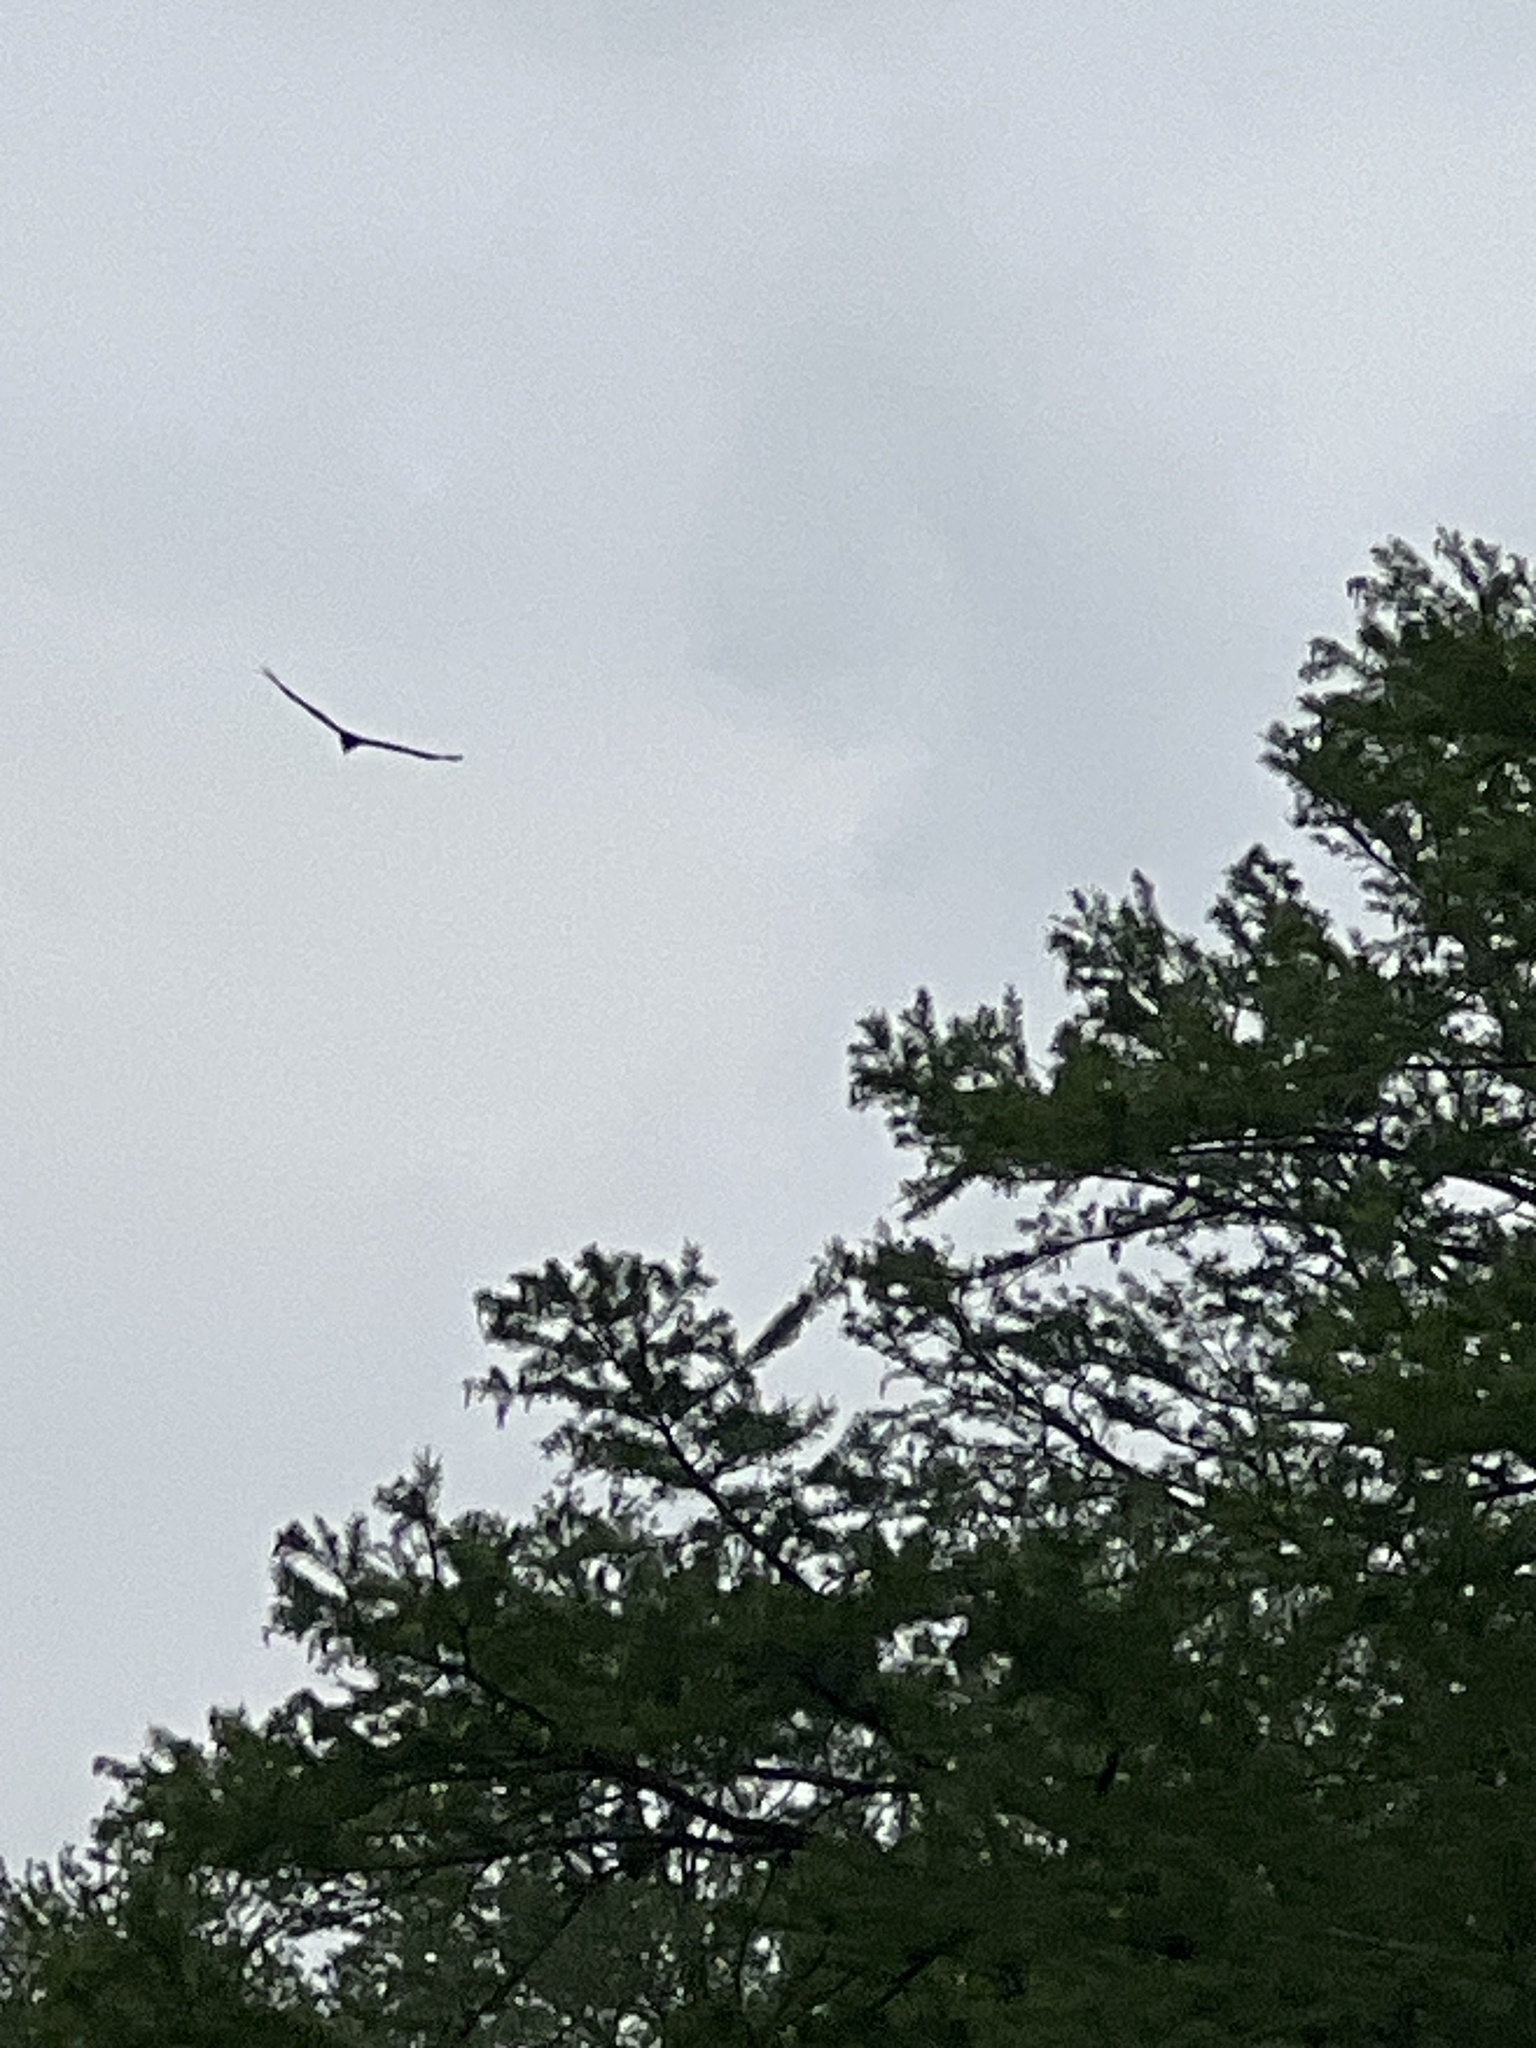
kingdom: Animalia
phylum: Chordata
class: Aves
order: Accipitriformes
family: Cathartidae
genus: Cathartes
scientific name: Cathartes aura
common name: Turkey vulture
